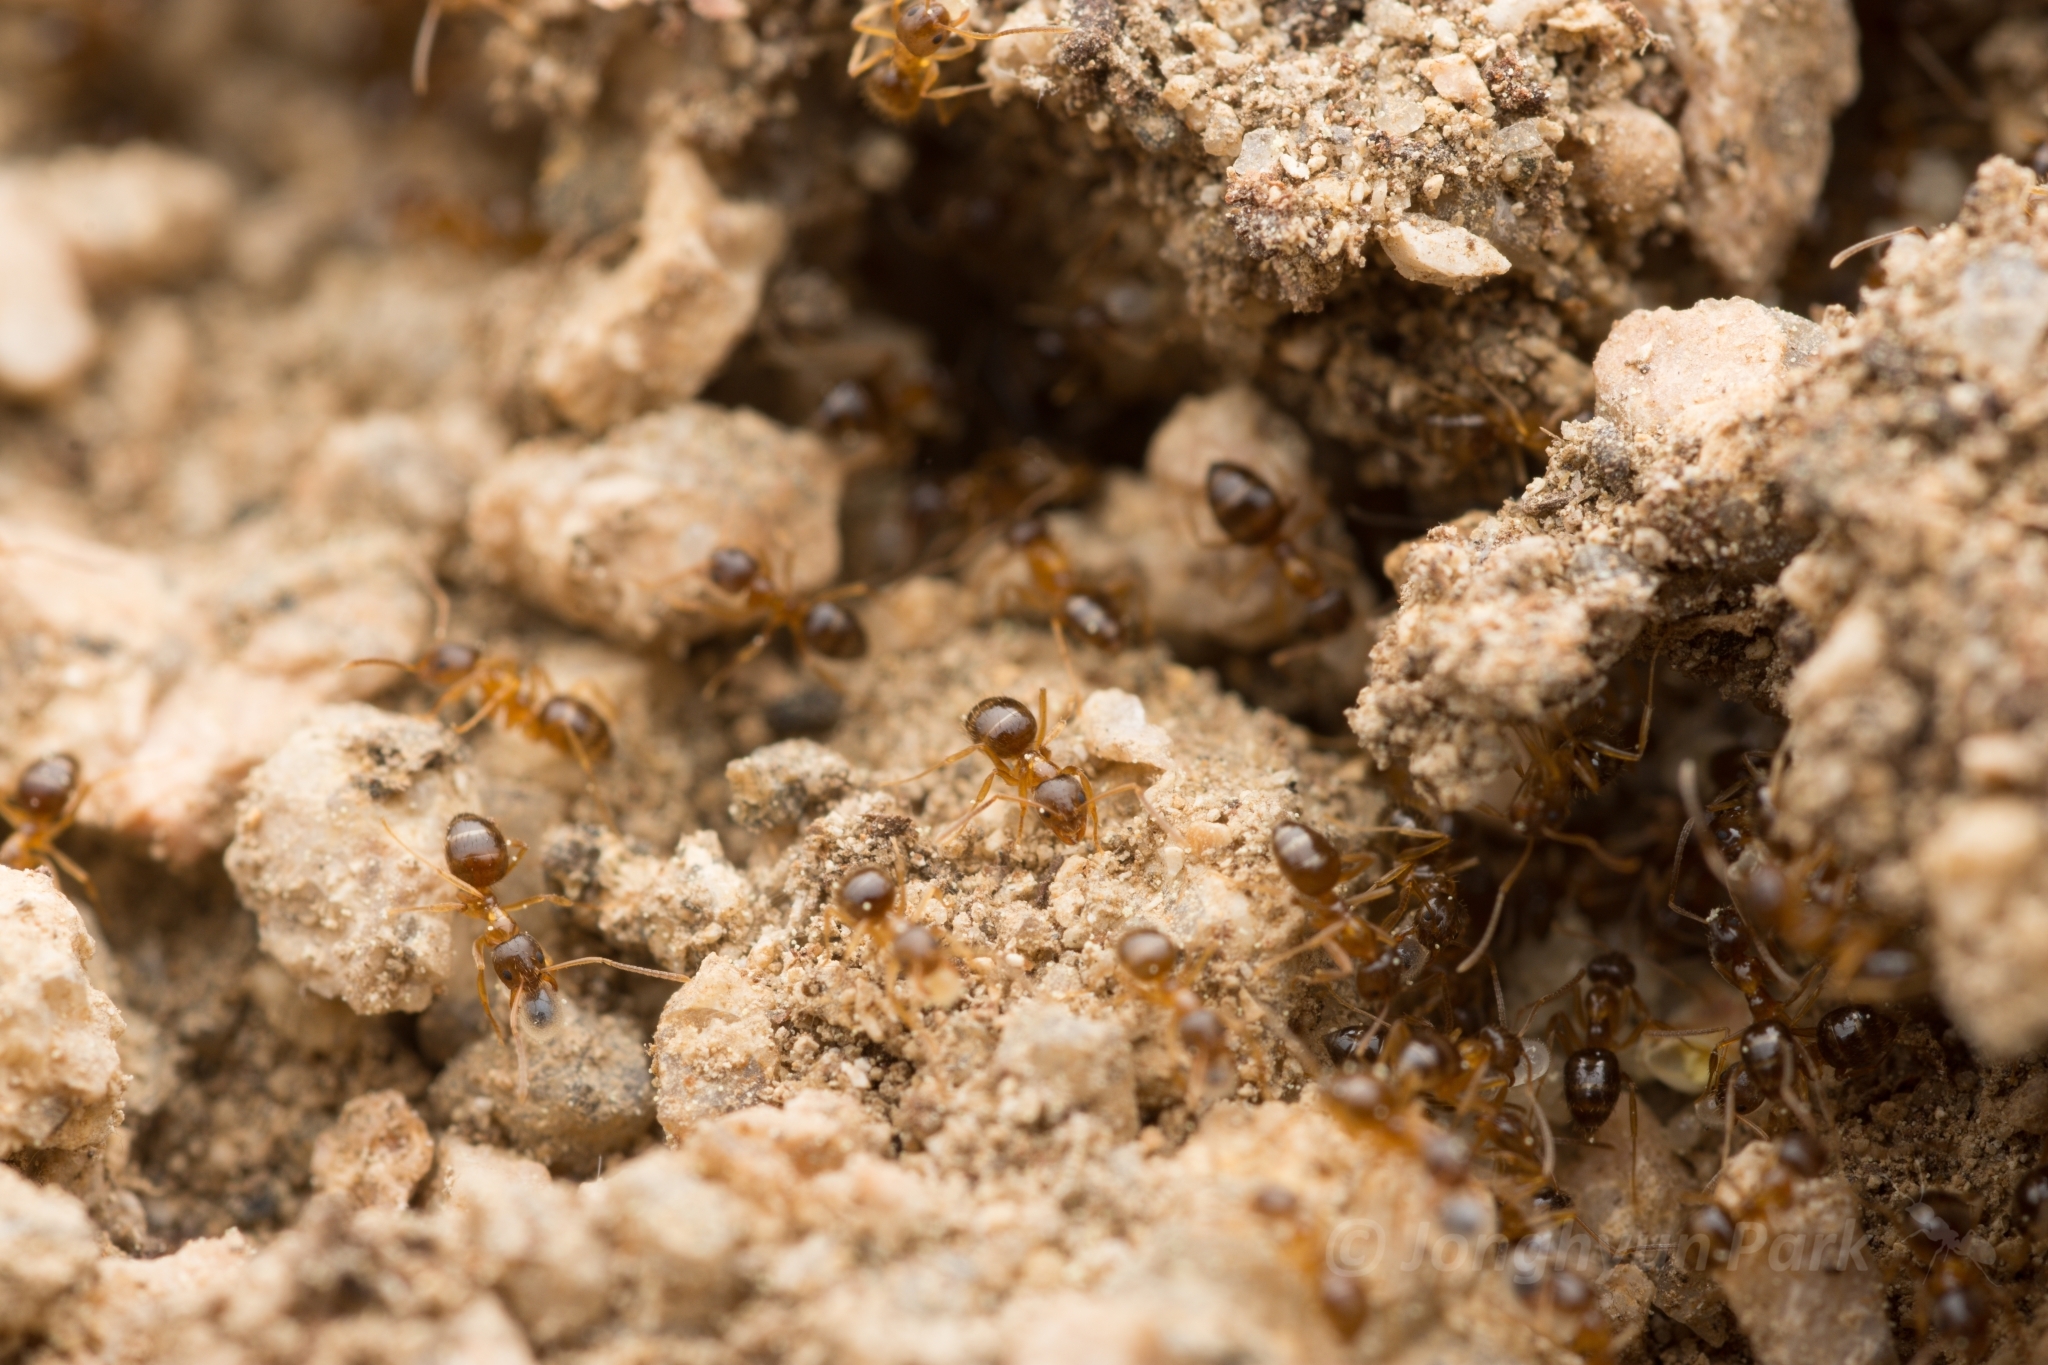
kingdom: Animalia
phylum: Arthropoda
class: Insecta
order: Hymenoptera
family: Formicidae
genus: Paratrechina
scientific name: Paratrechina flavipes
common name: Eastern asian formicine ant
